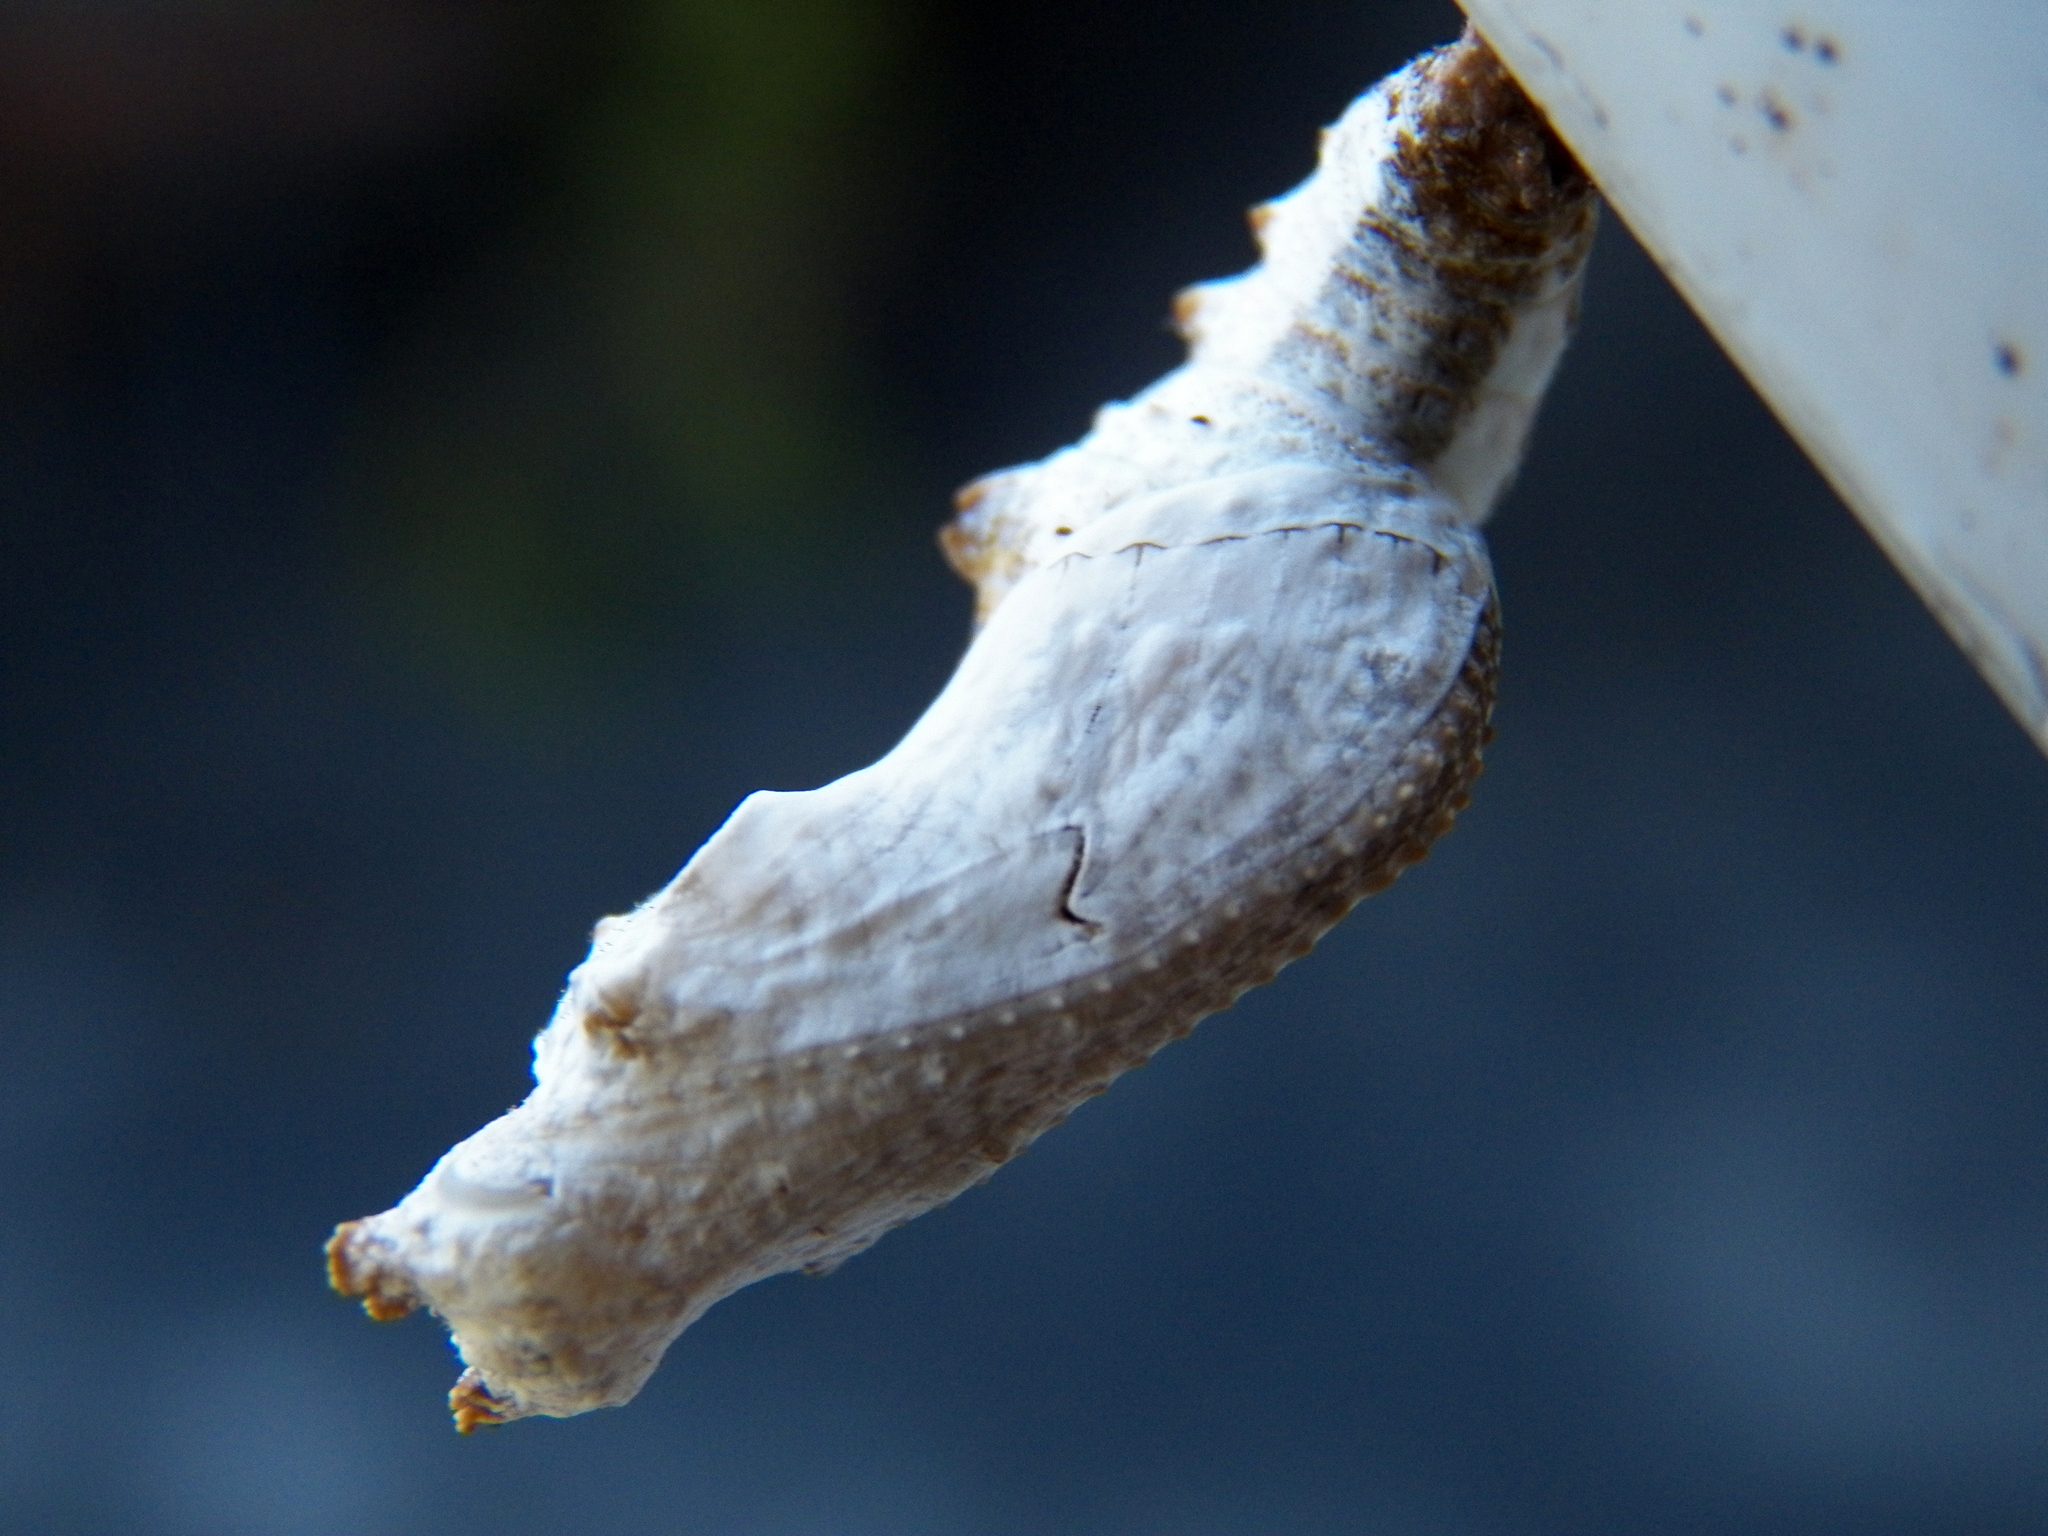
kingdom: Animalia
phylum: Arthropoda
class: Insecta
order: Lepidoptera
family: Nymphalidae
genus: Dione
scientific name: Dione vanillae
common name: Gulf fritillary
